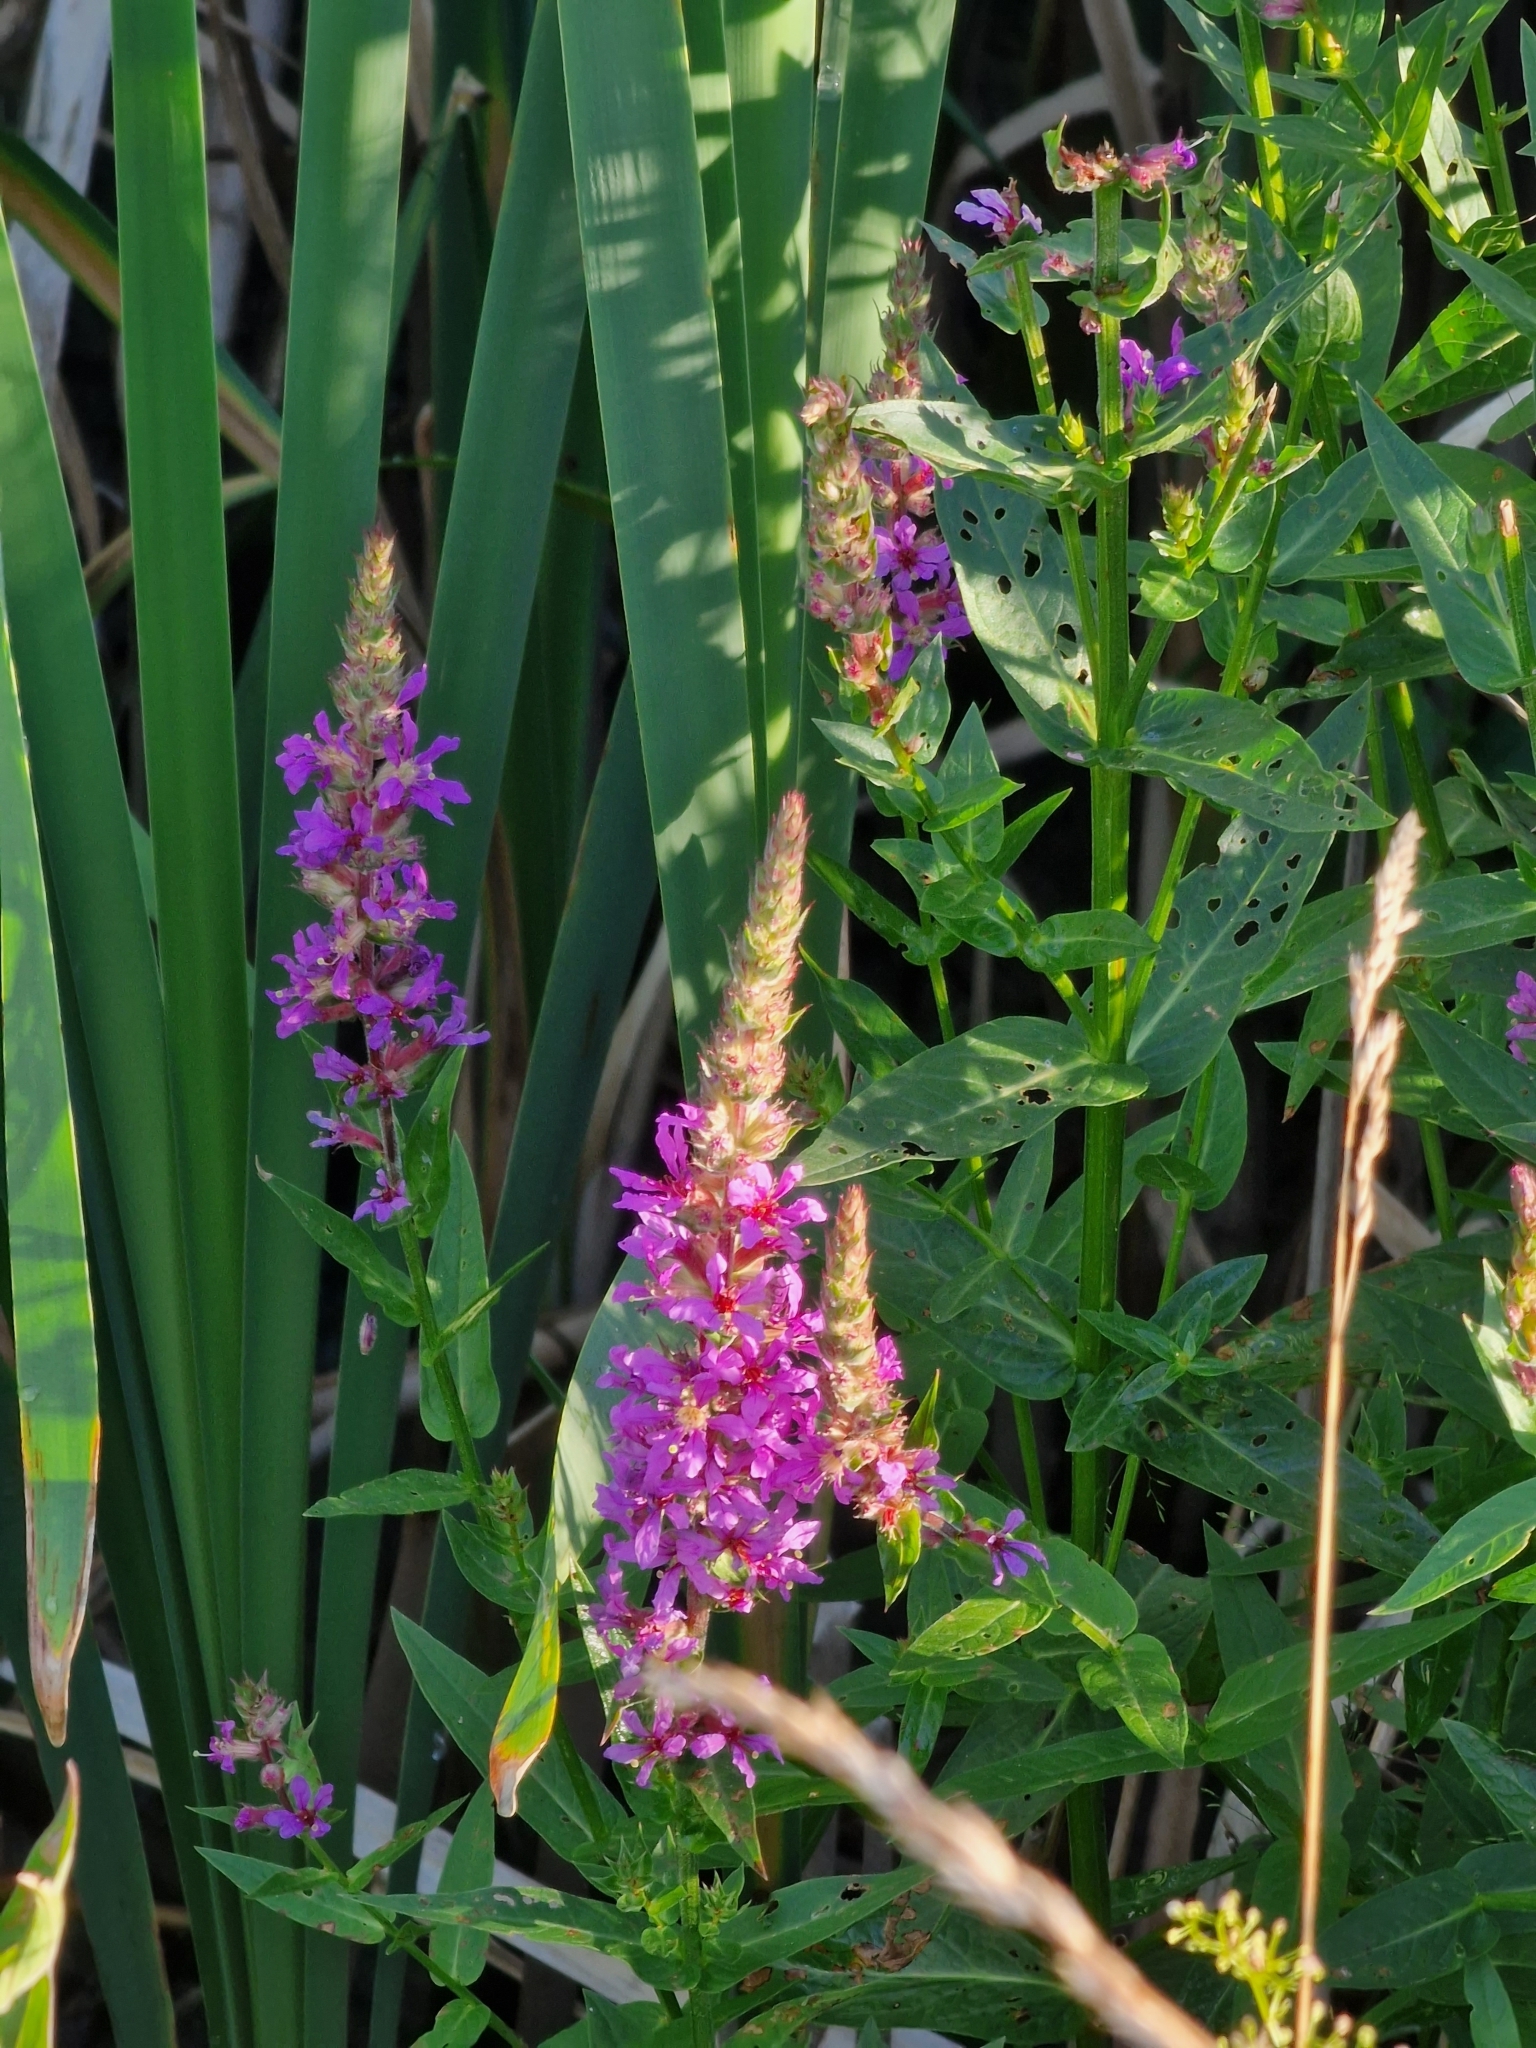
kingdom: Plantae
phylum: Tracheophyta
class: Magnoliopsida
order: Myrtales
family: Lythraceae
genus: Lythrum
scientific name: Lythrum salicaria
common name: Purple loosestrife
